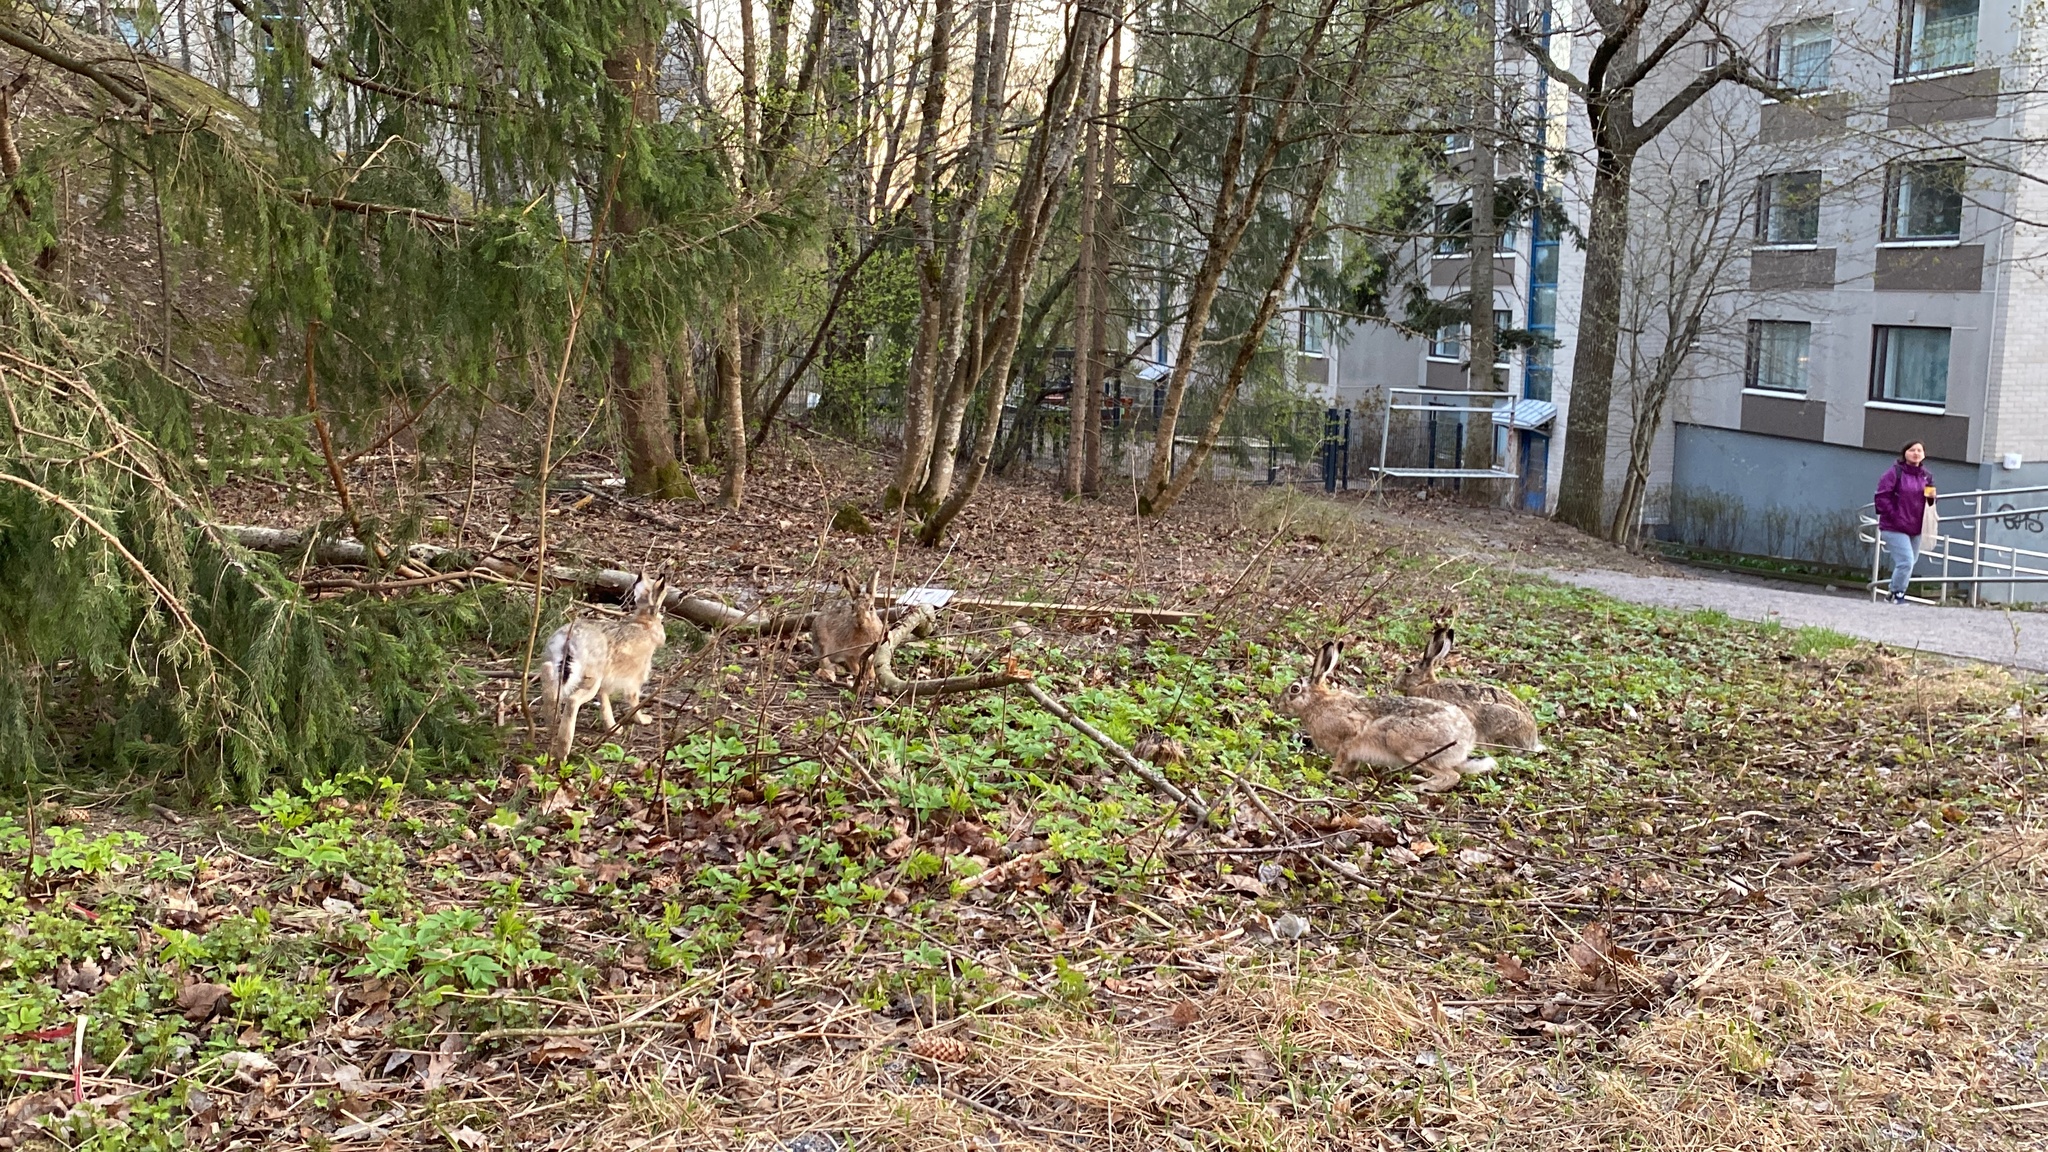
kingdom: Animalia
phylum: Chordata
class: Mammalia
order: Lagomorpha
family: Leporidae
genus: Lepus
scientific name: Lepus europaeus
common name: European hare
